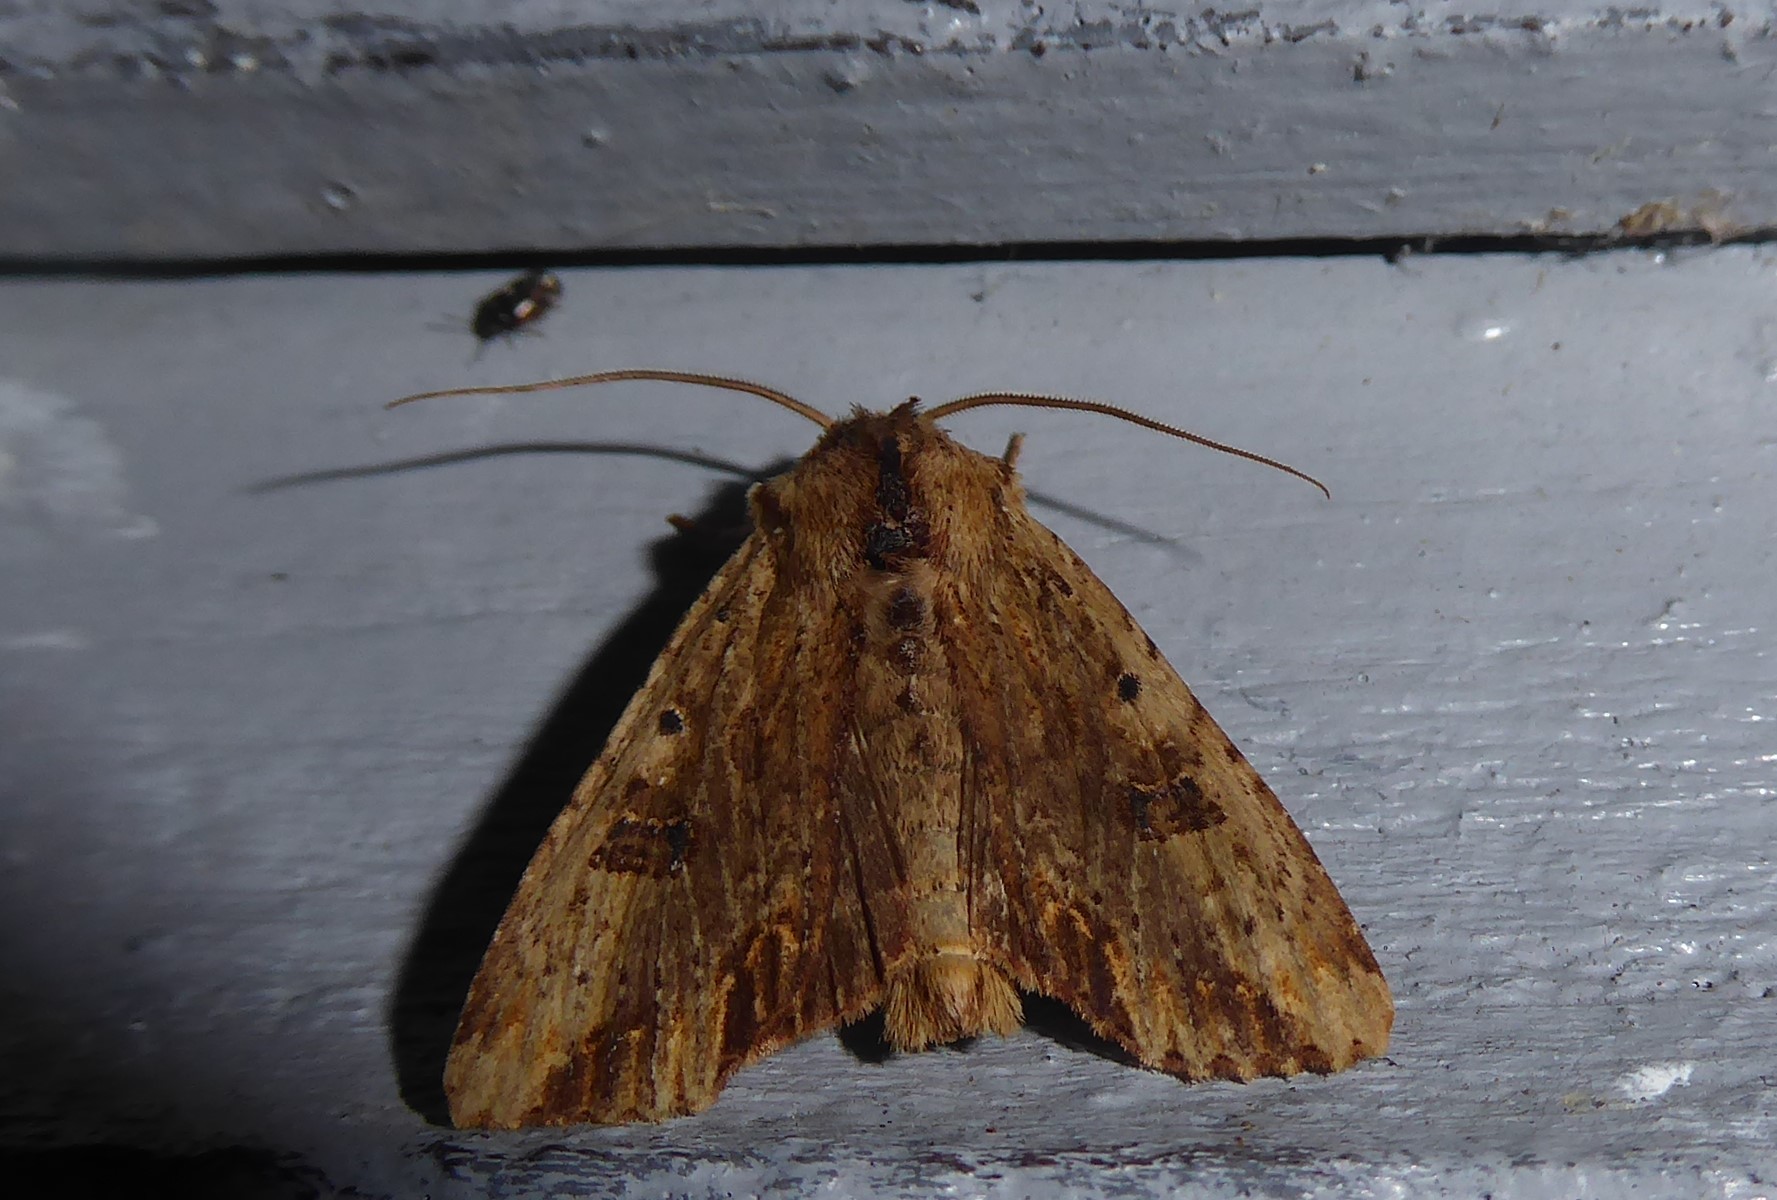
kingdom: Animalia
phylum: Arthropoda
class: Insecta
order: Lepidoptera
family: Noctuidae
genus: Ichneutica
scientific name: Ichneutica
